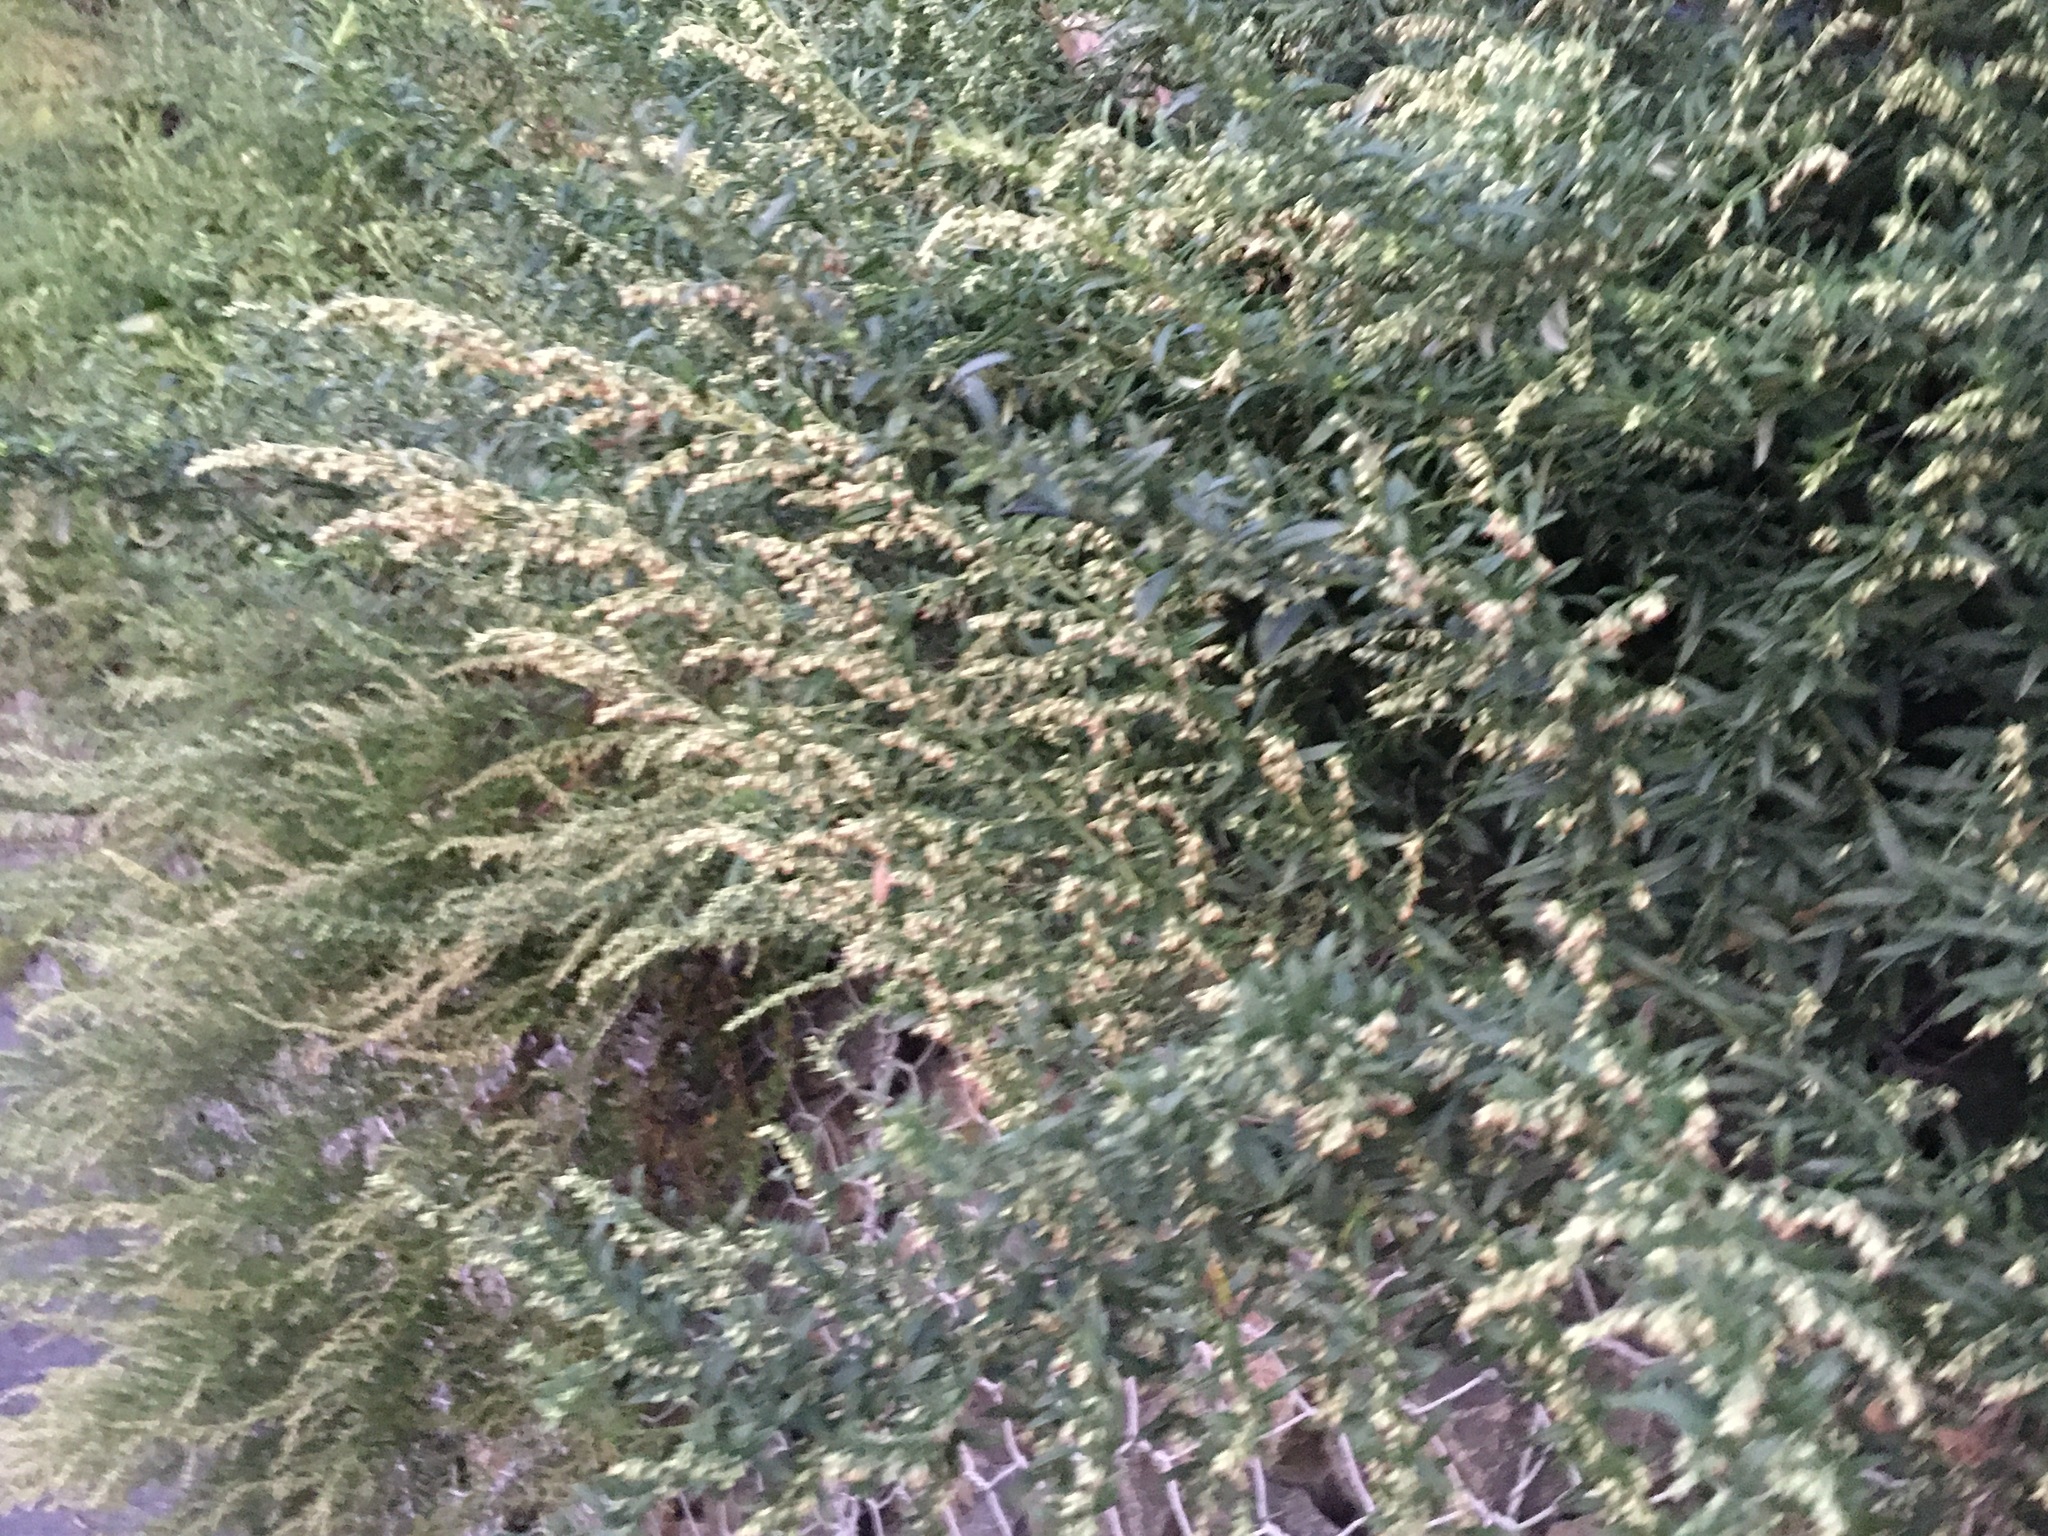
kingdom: Plantae
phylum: Tracheophyta
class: Magnoliopsida
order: Asterales
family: Asteraceae
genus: Artemisia
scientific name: Artemisia vulgaris
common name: Mugwort
